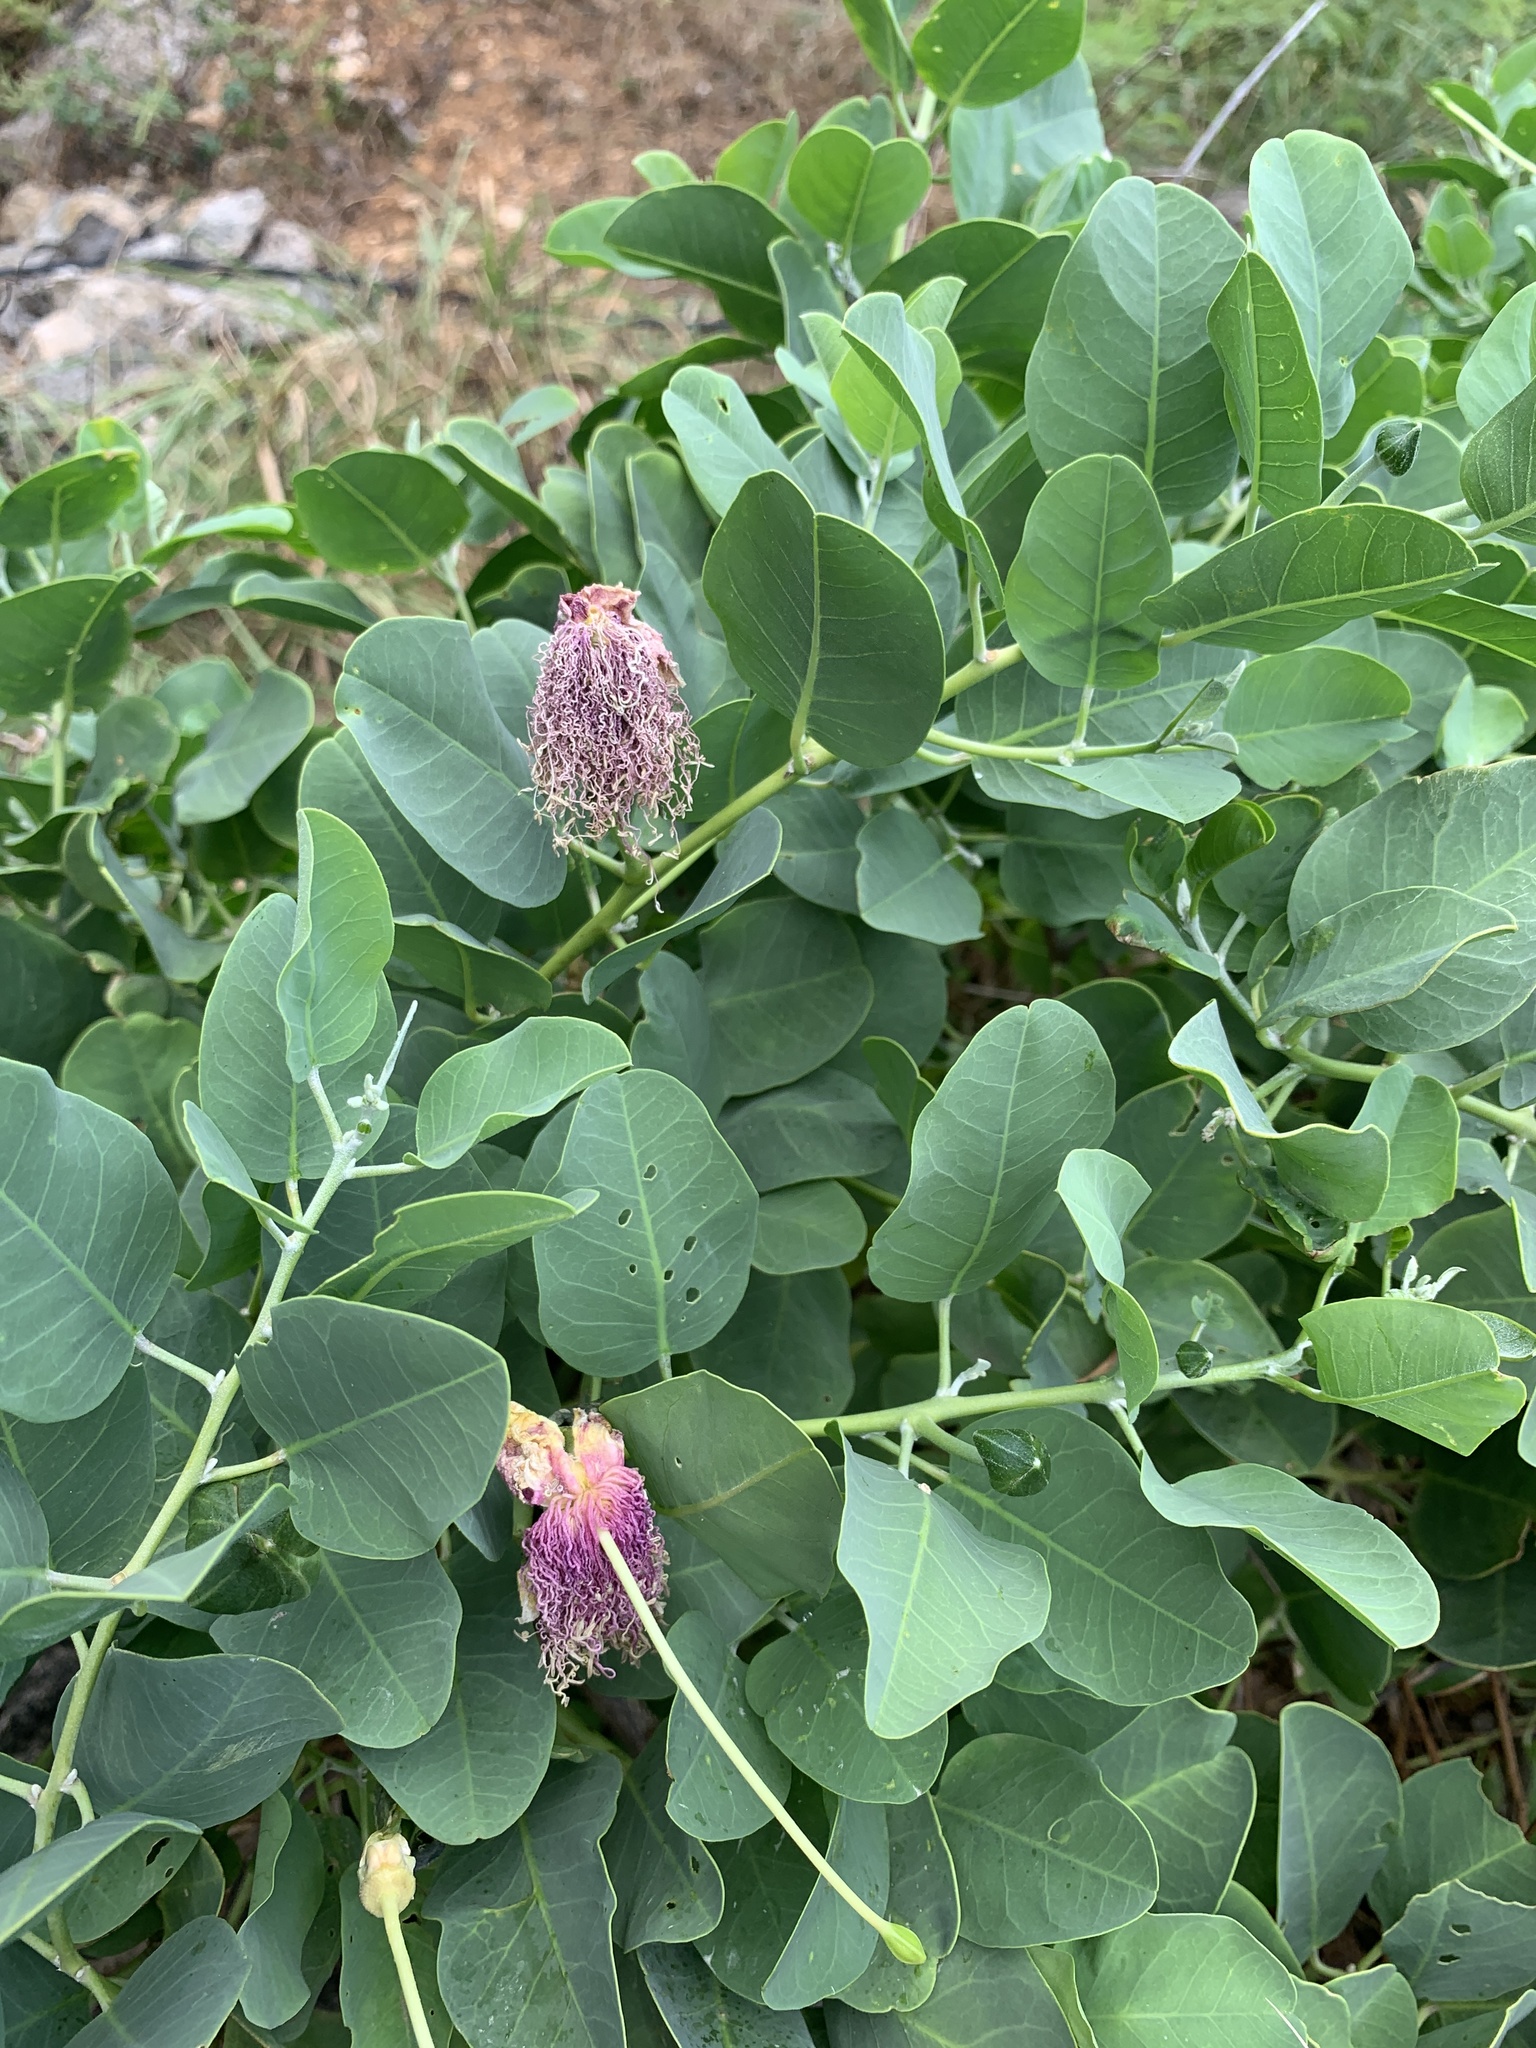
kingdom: Plantae
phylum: Tracheophyta
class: Magnoliopsida
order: Brassicales
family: Capparaceae
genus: Capparis
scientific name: Capparis spinosa
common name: Caper
